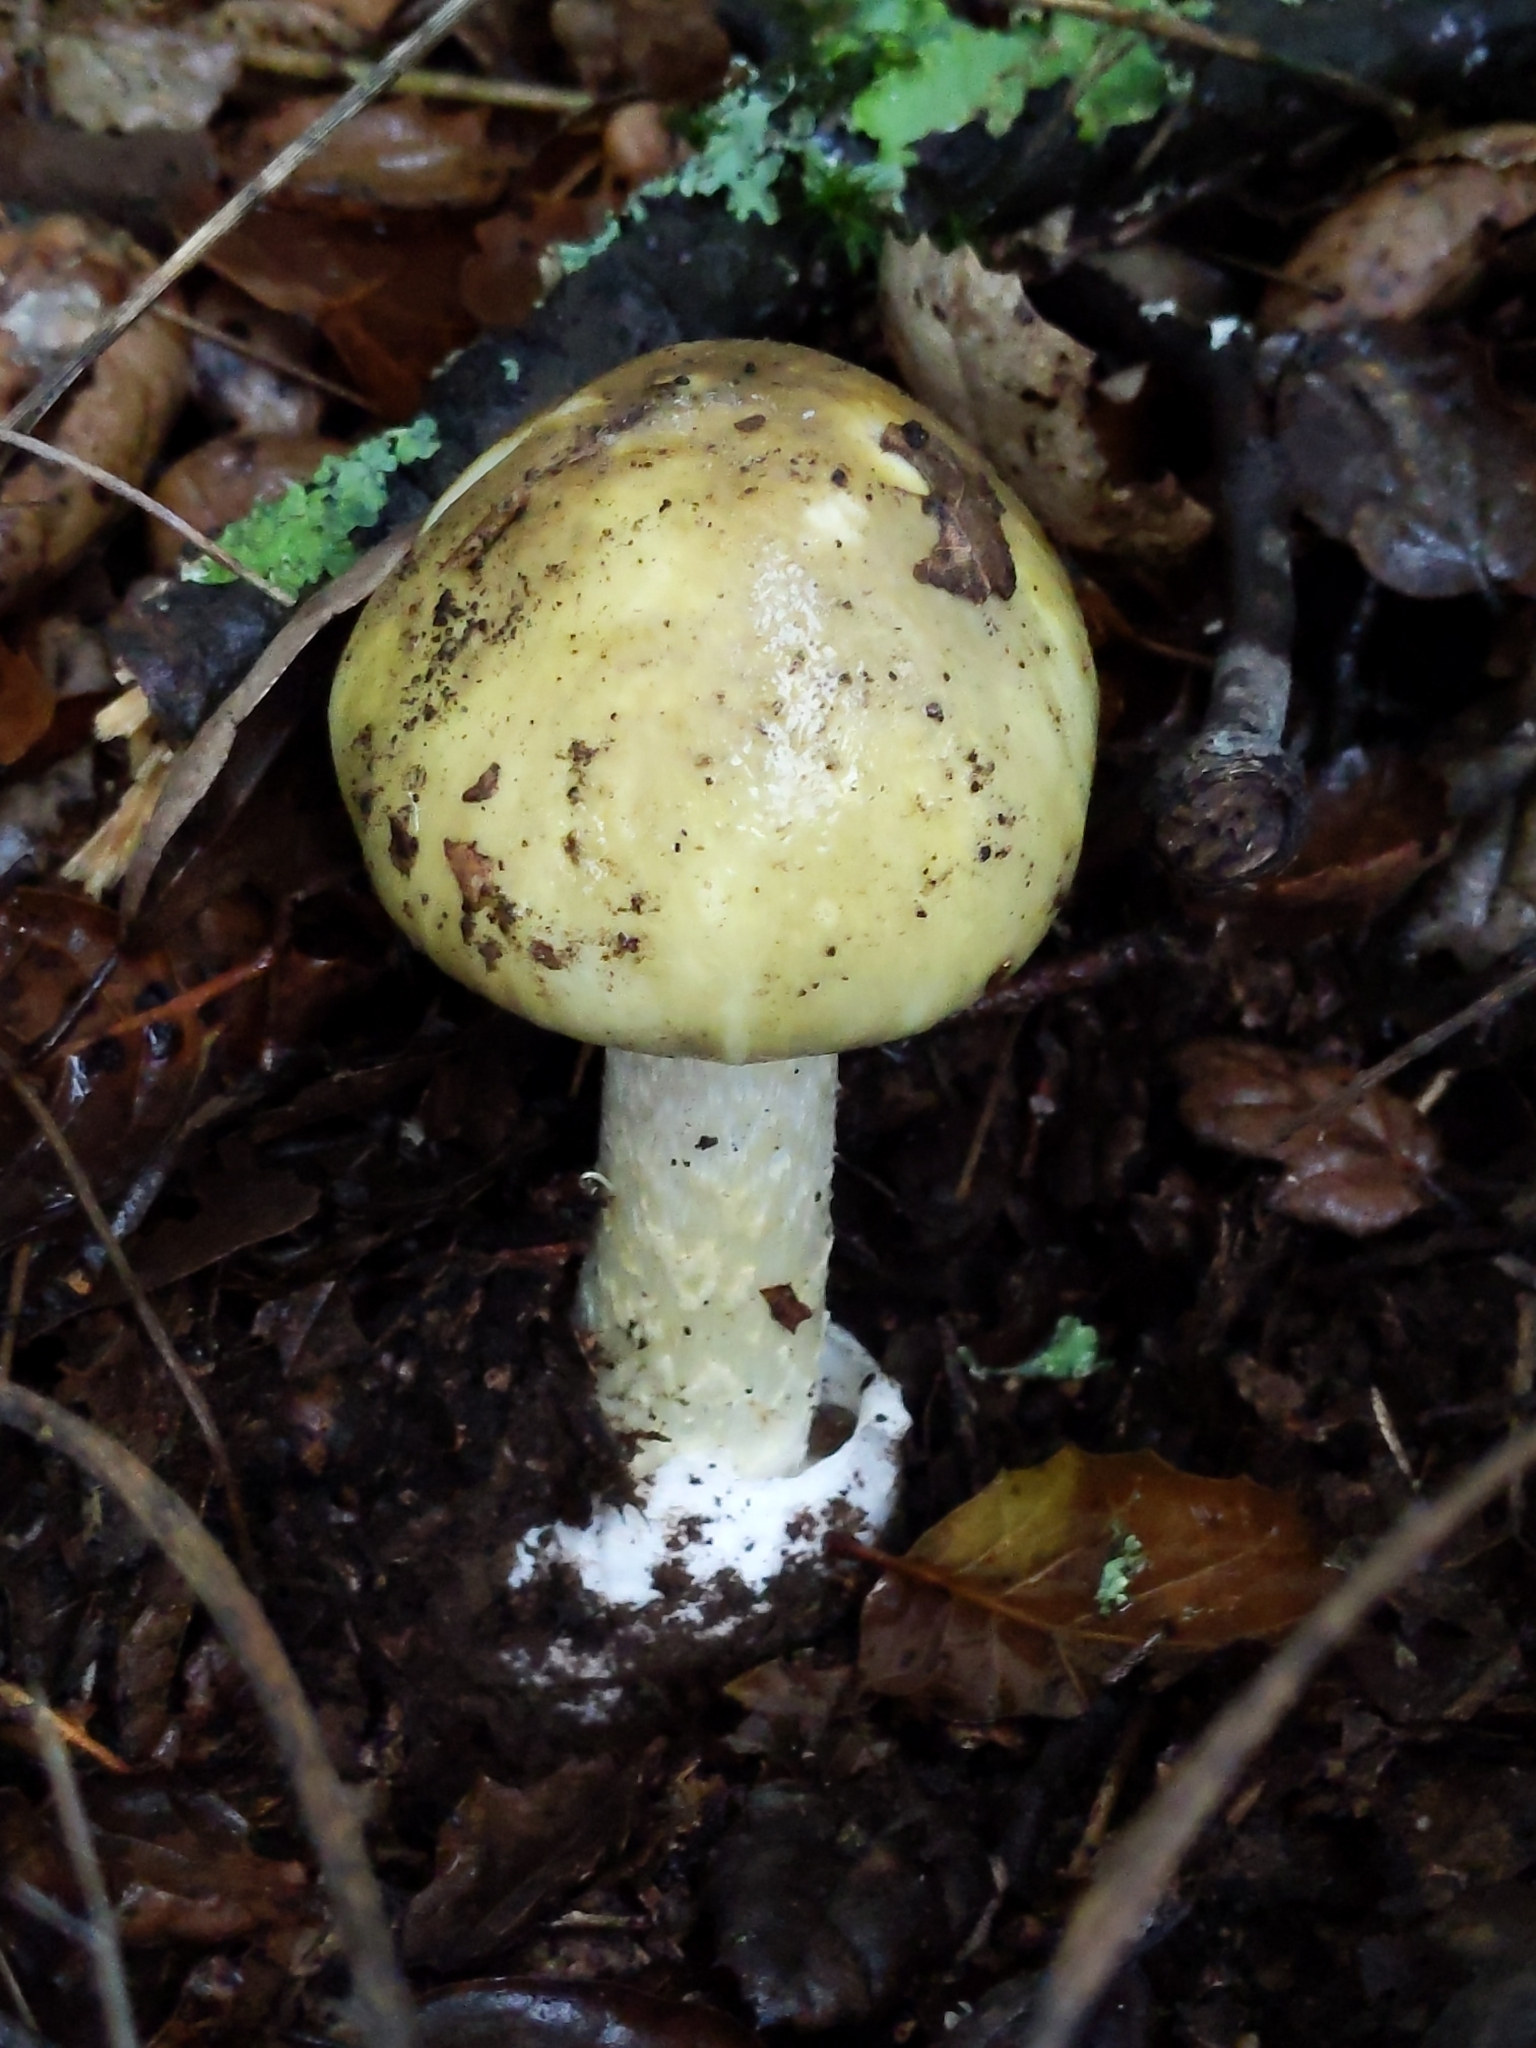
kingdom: Fungi
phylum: Basidiomycota
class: Agaricomycetes
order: Agaricales
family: Amanitaceae
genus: Amanita
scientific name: Amanita phalloides
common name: Death cap
